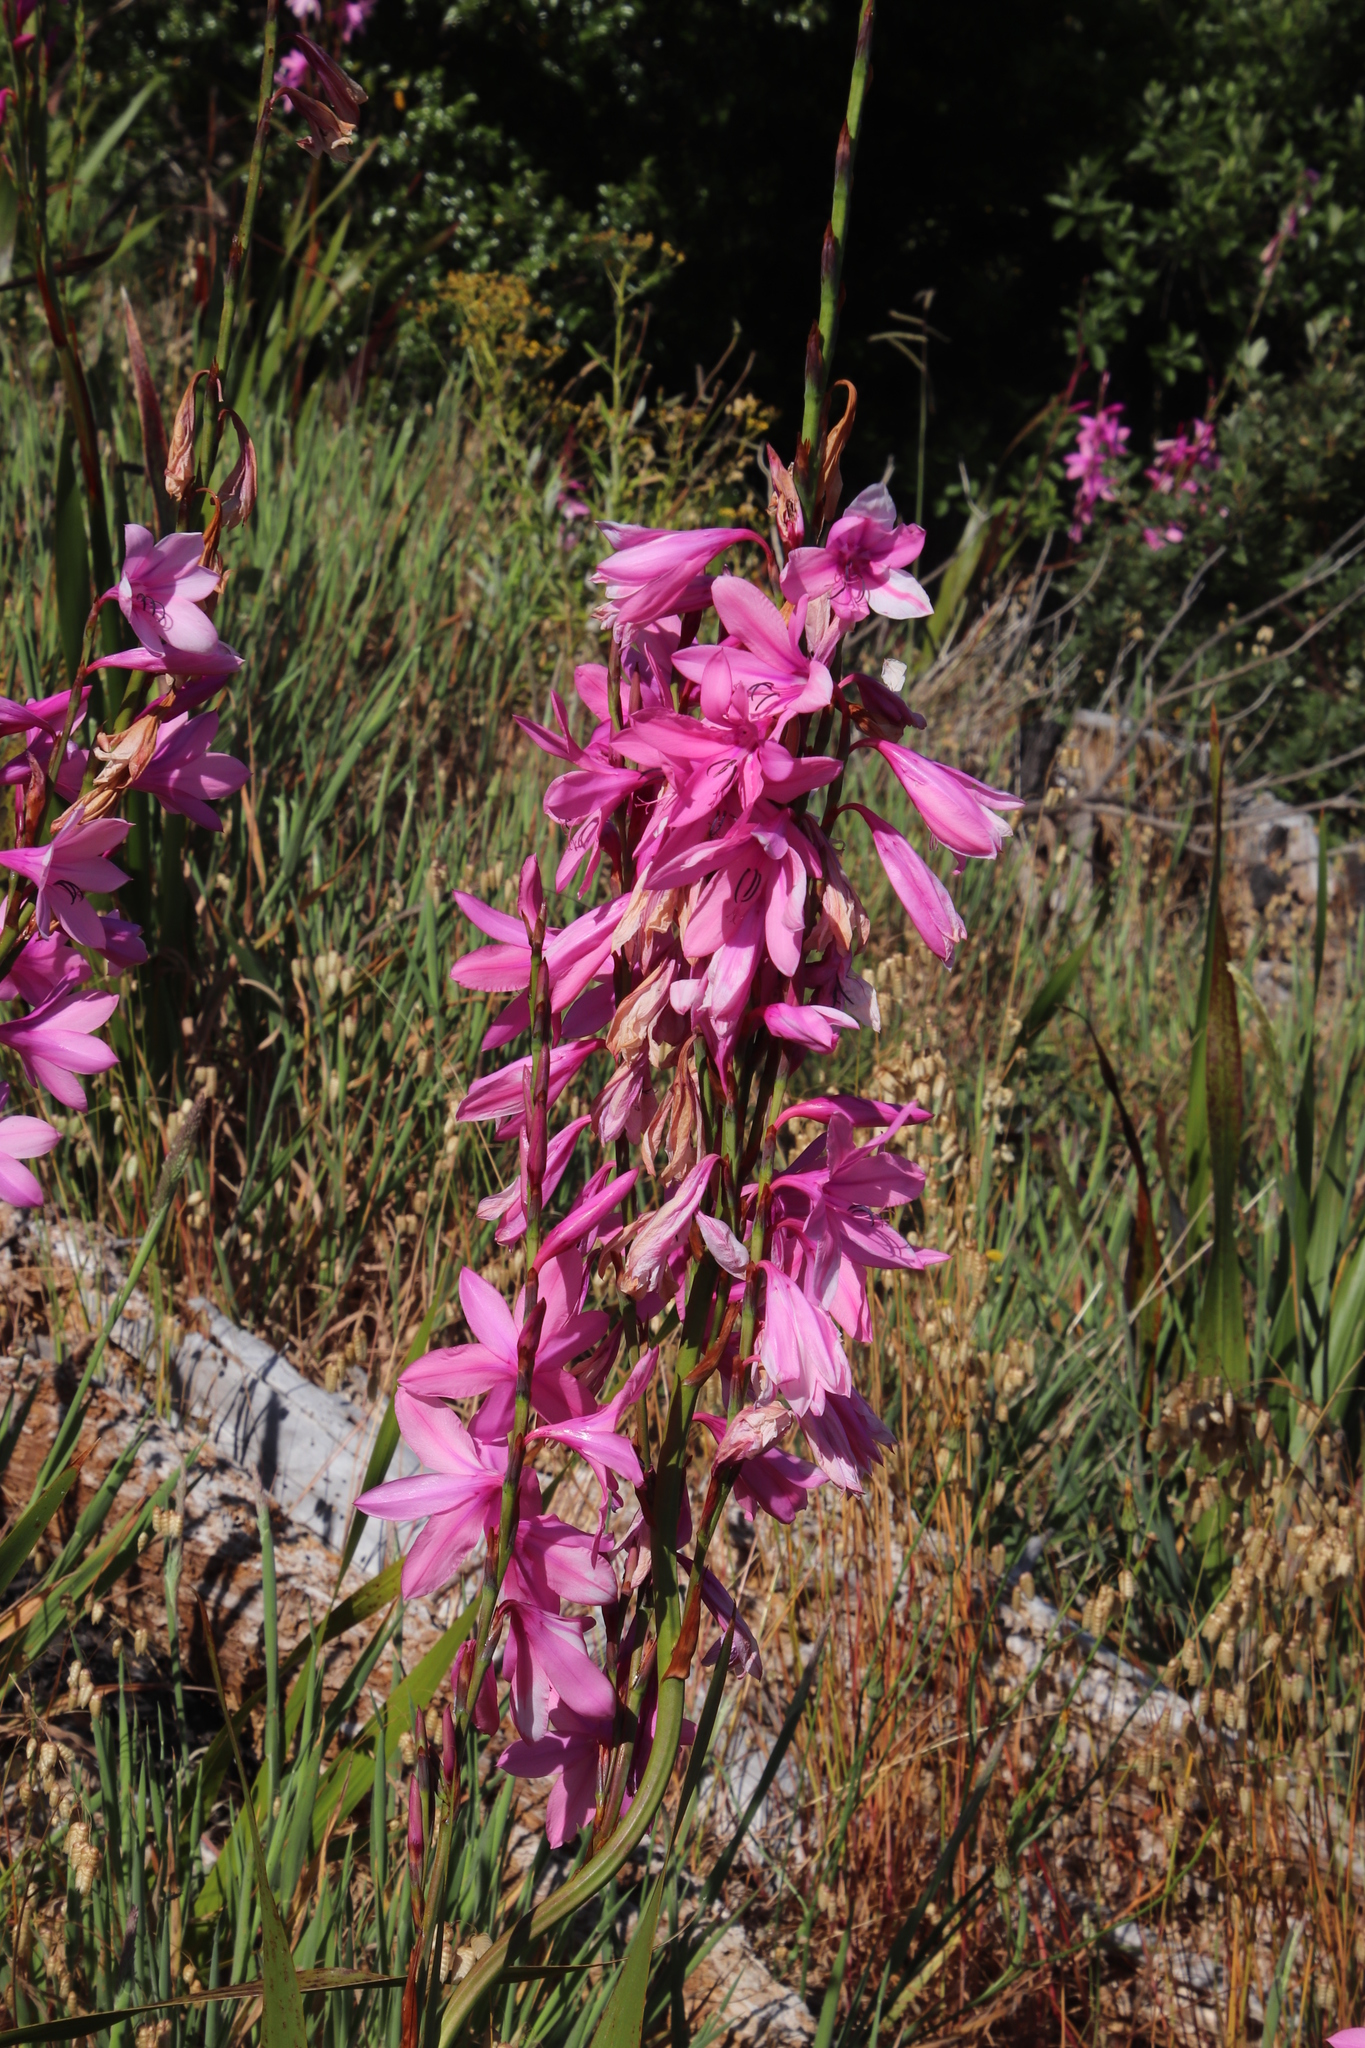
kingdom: Plantae
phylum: Tracheophyta
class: Liliopsida
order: Asparagales
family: Iridaceae
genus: Watsonia
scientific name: Watsonia borbonica
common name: Bugle-lily
